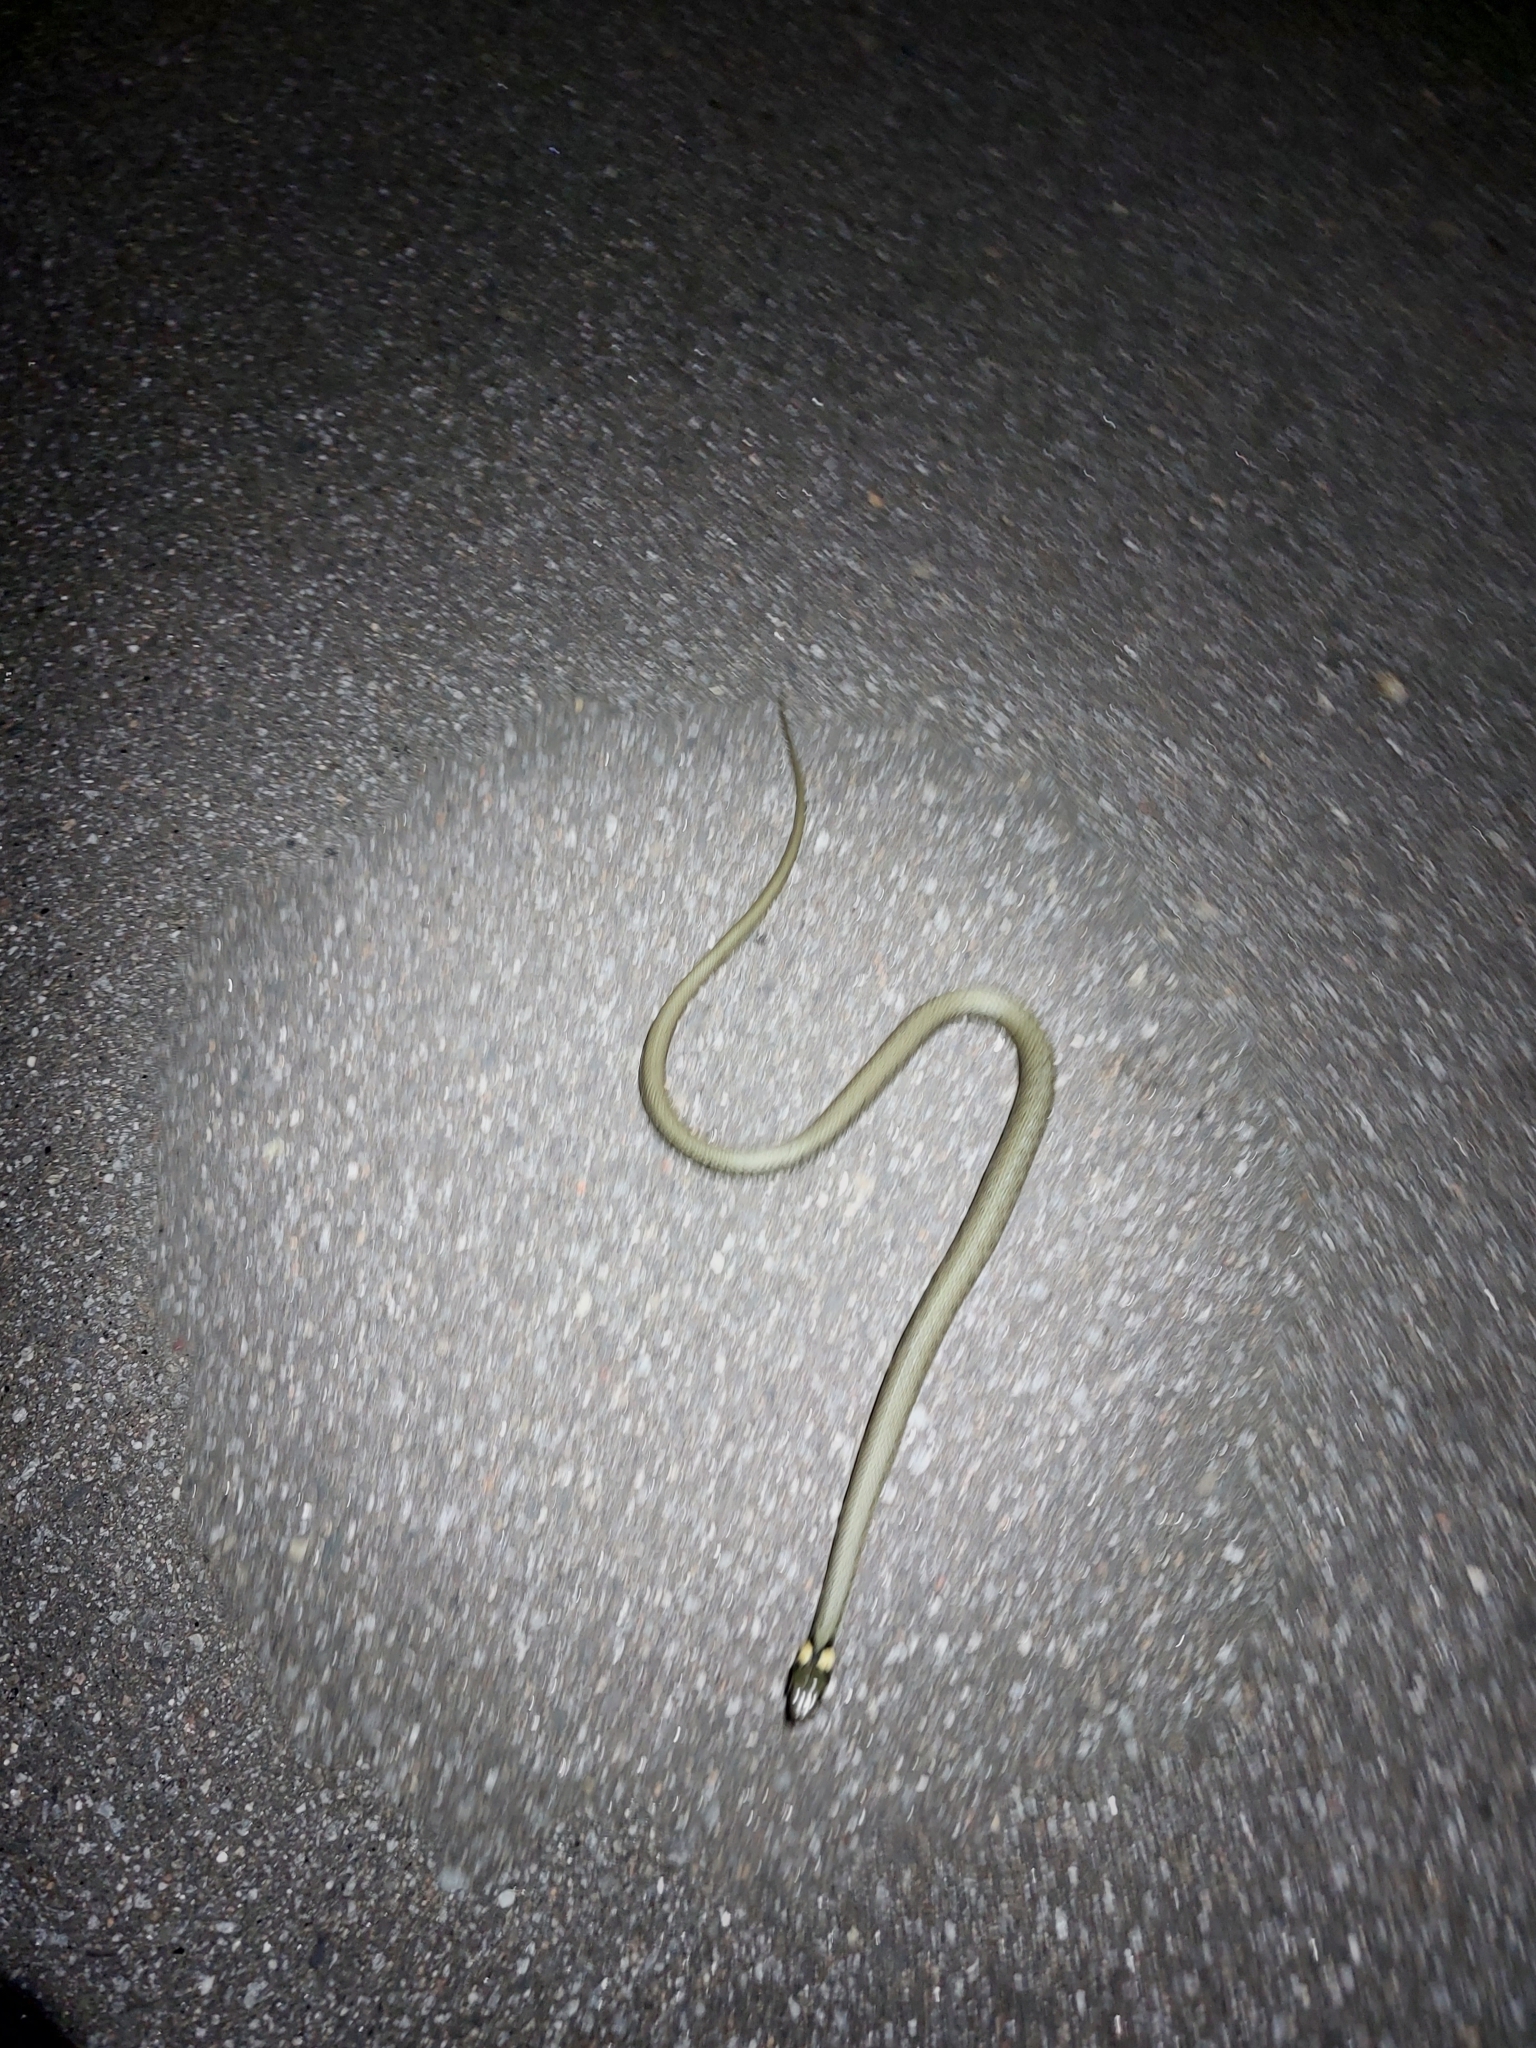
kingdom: Animalia
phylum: Chordata
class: Squamata
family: Colubridae
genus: Natrix
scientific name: Natrix natrix
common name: Grass snake
